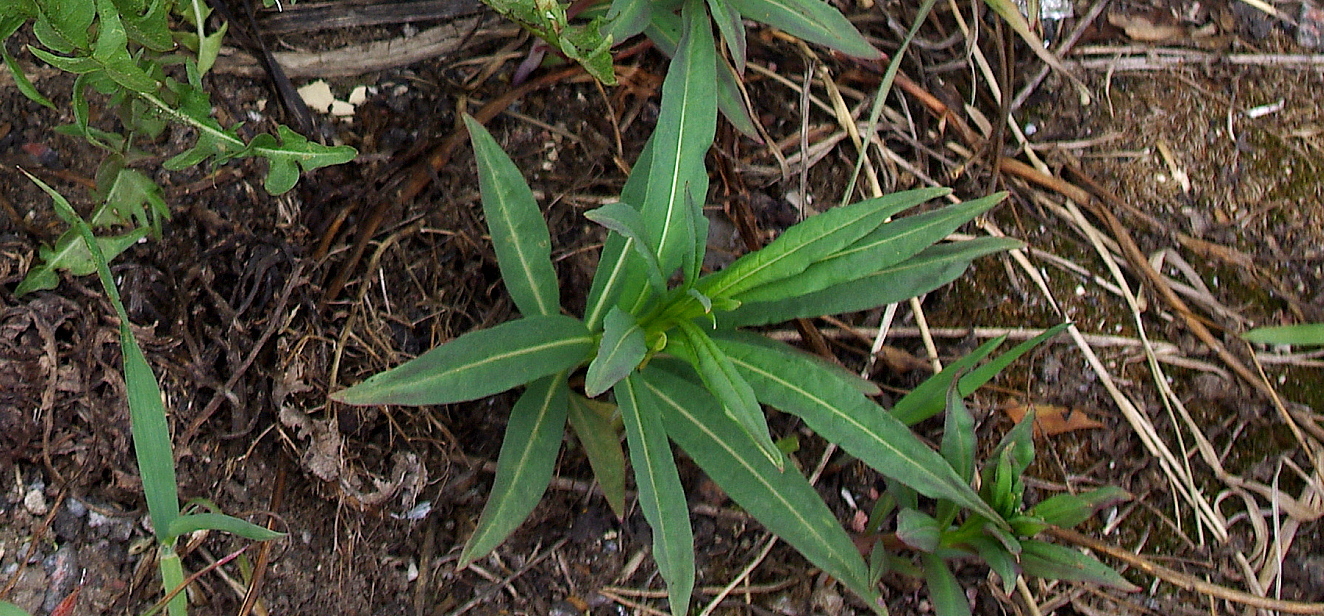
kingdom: Plantae
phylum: Tracheophyta
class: Magnoliopsida
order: Myrtales
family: Onagraceae
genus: Chamaenerion
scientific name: Chamaenerion angustifolium
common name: Fireweed
